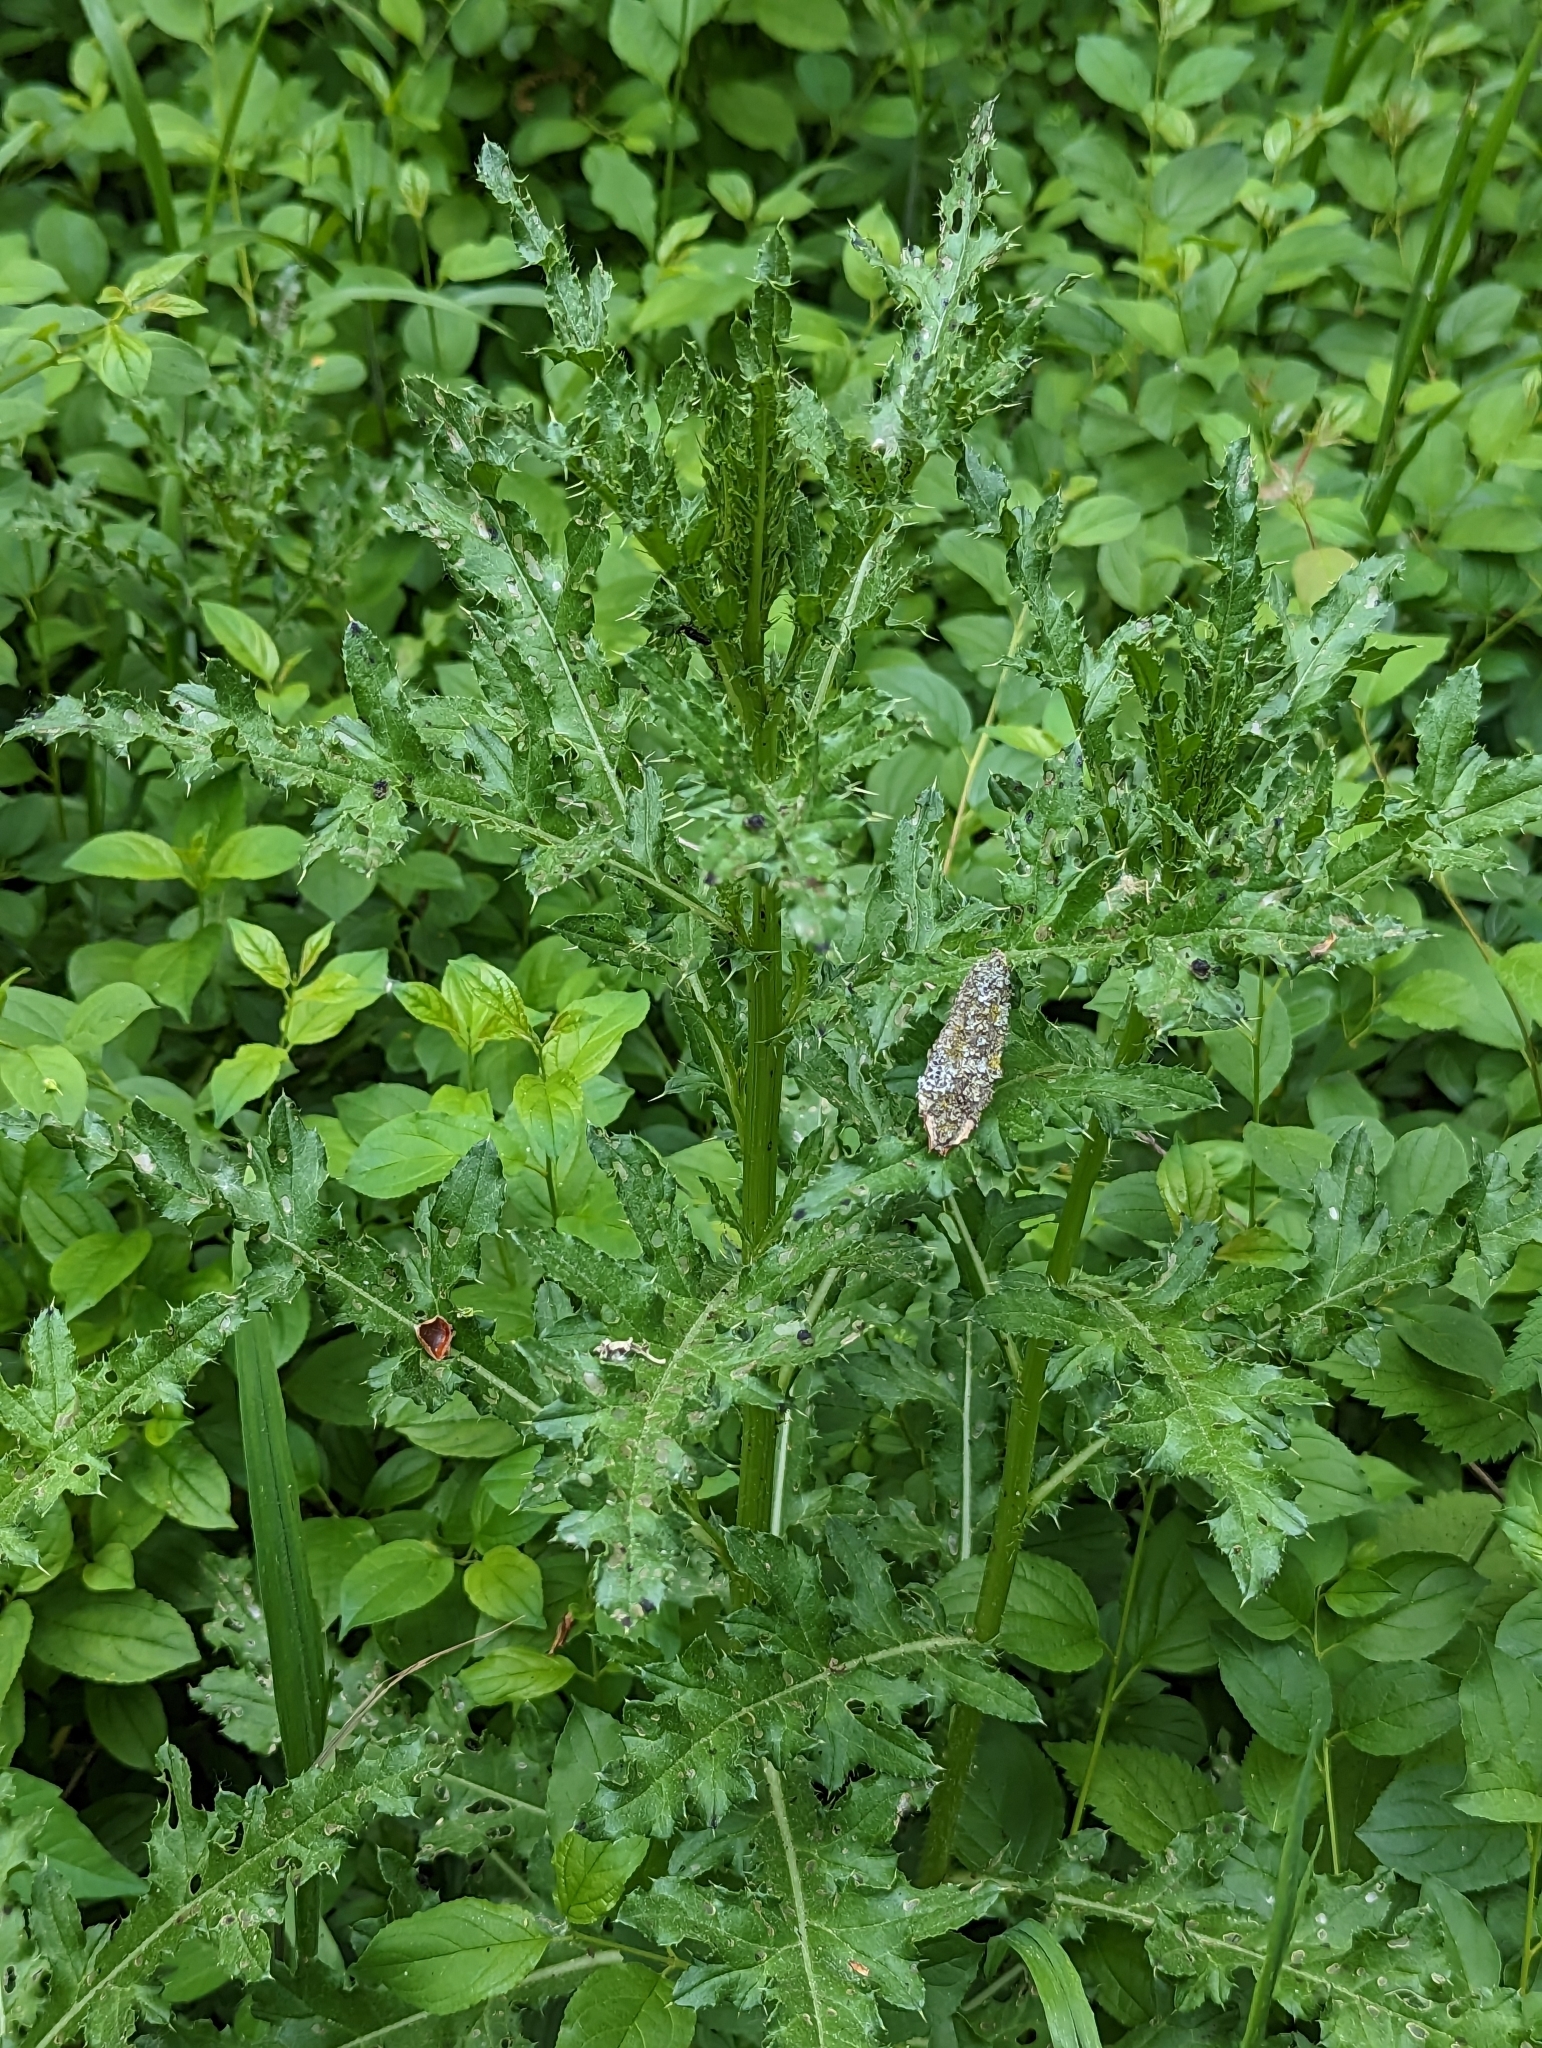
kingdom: Plantae
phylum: Tracheophyta
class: Magnoliopsida
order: Asterales
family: Asteraceae
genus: Cirsium
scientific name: Cirsium arvense
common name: Creeping thistle
